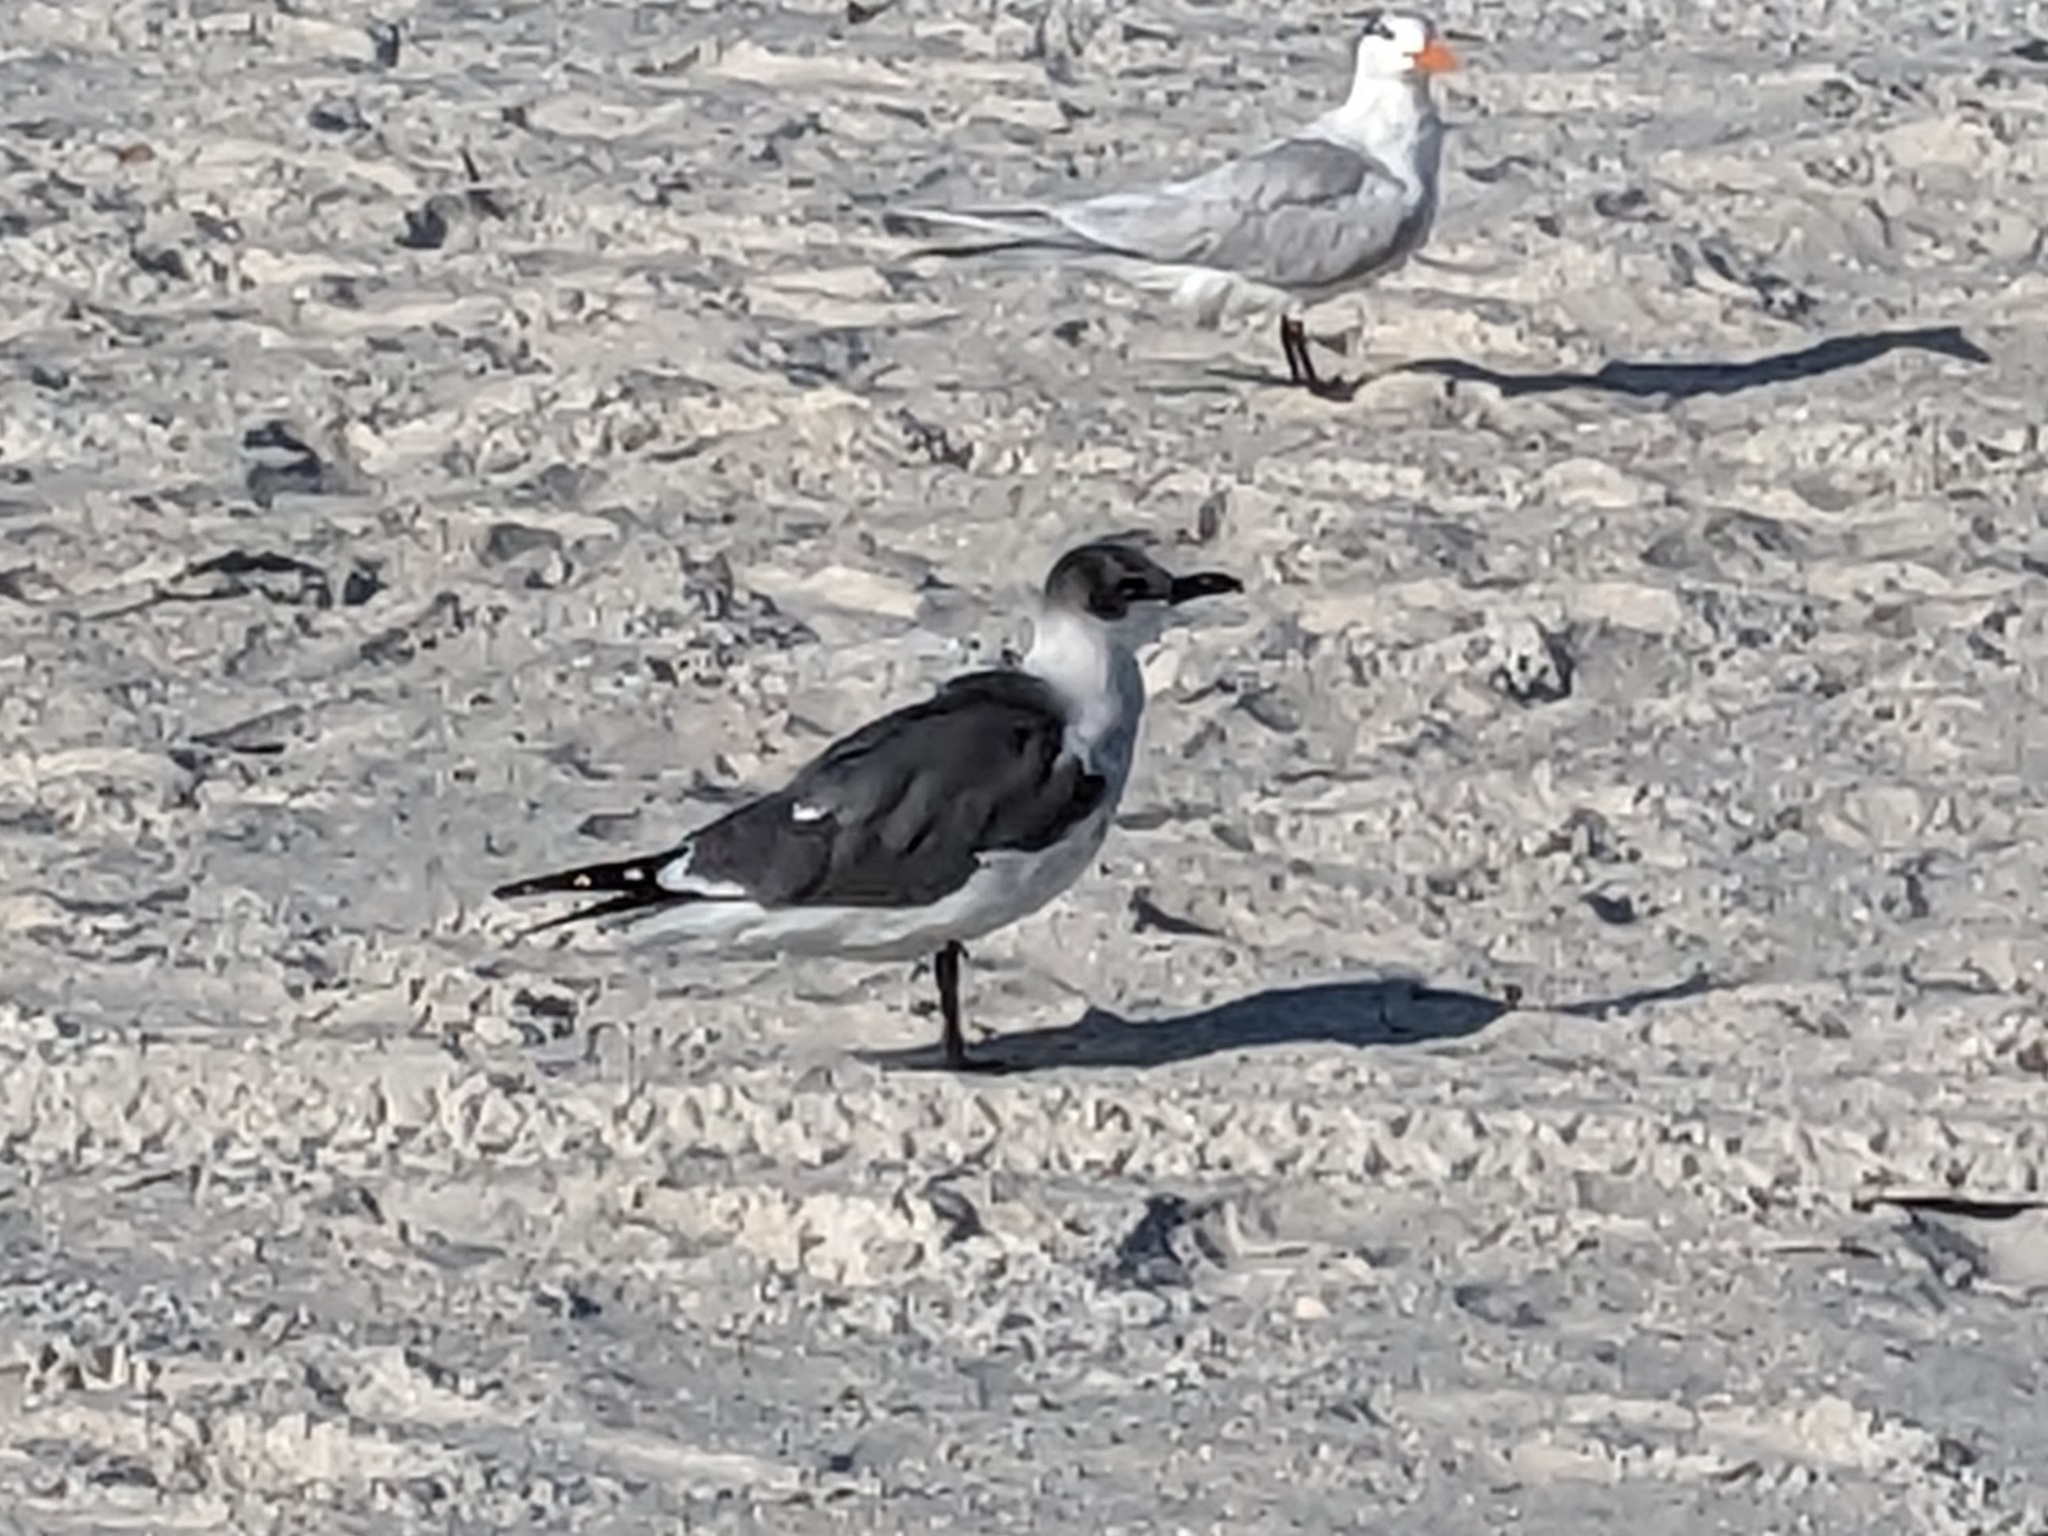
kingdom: Animalia
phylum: Chordata
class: Aves
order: Charadriiformes
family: Laridae
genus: Leucophaeus
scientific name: Leucophaeus atricilla
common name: Laughing gull
